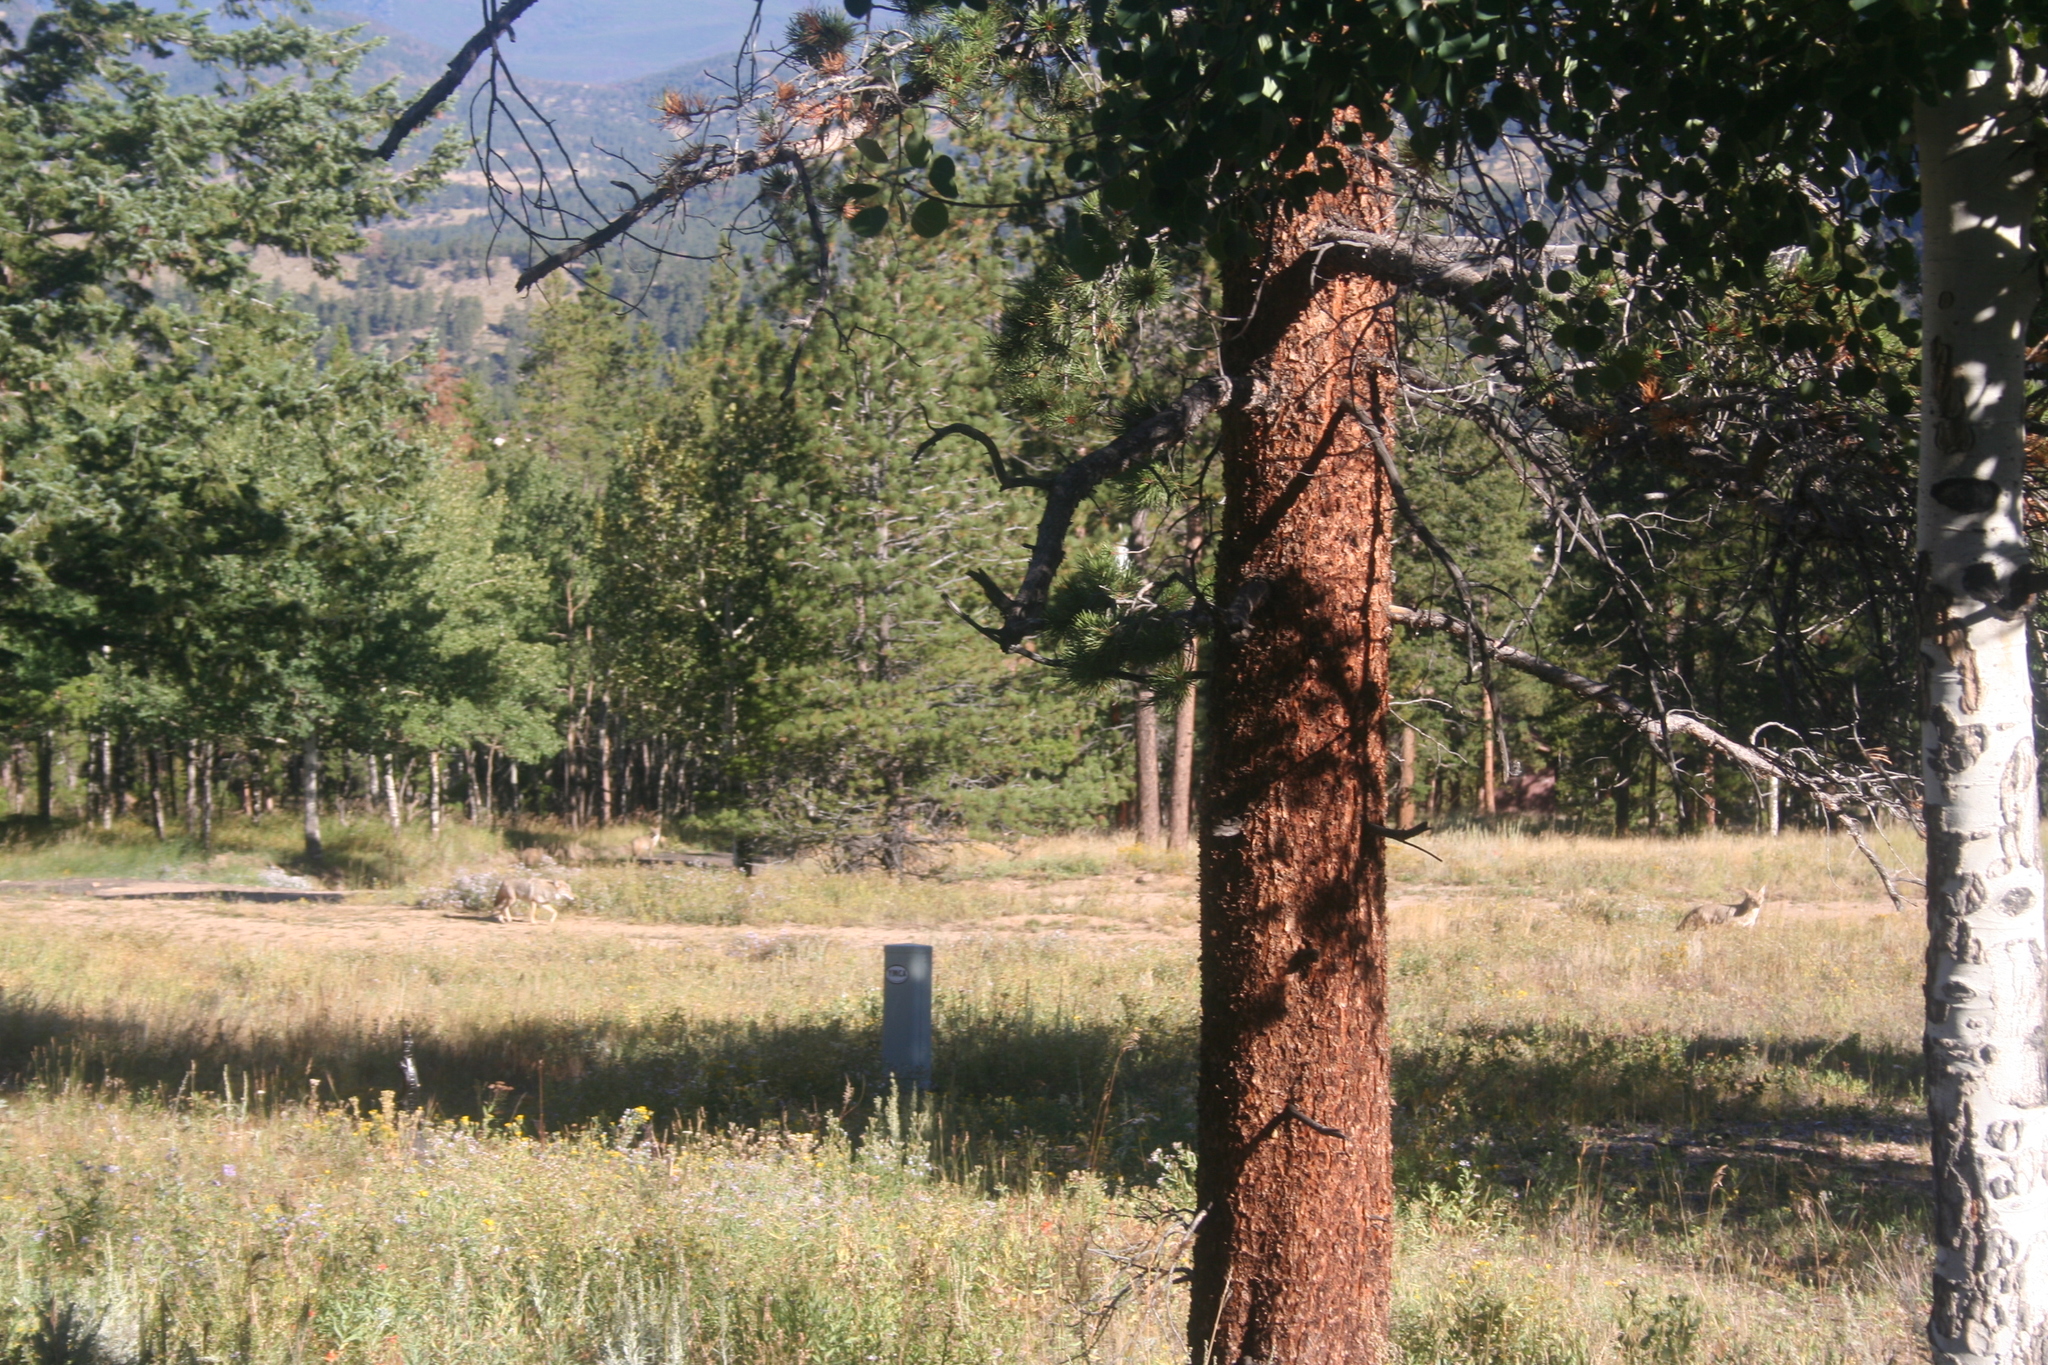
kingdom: Animalia
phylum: Chordata
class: Mammalia
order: Carnivora
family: Canidae
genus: Canis
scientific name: Canis latrans
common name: Coyote
